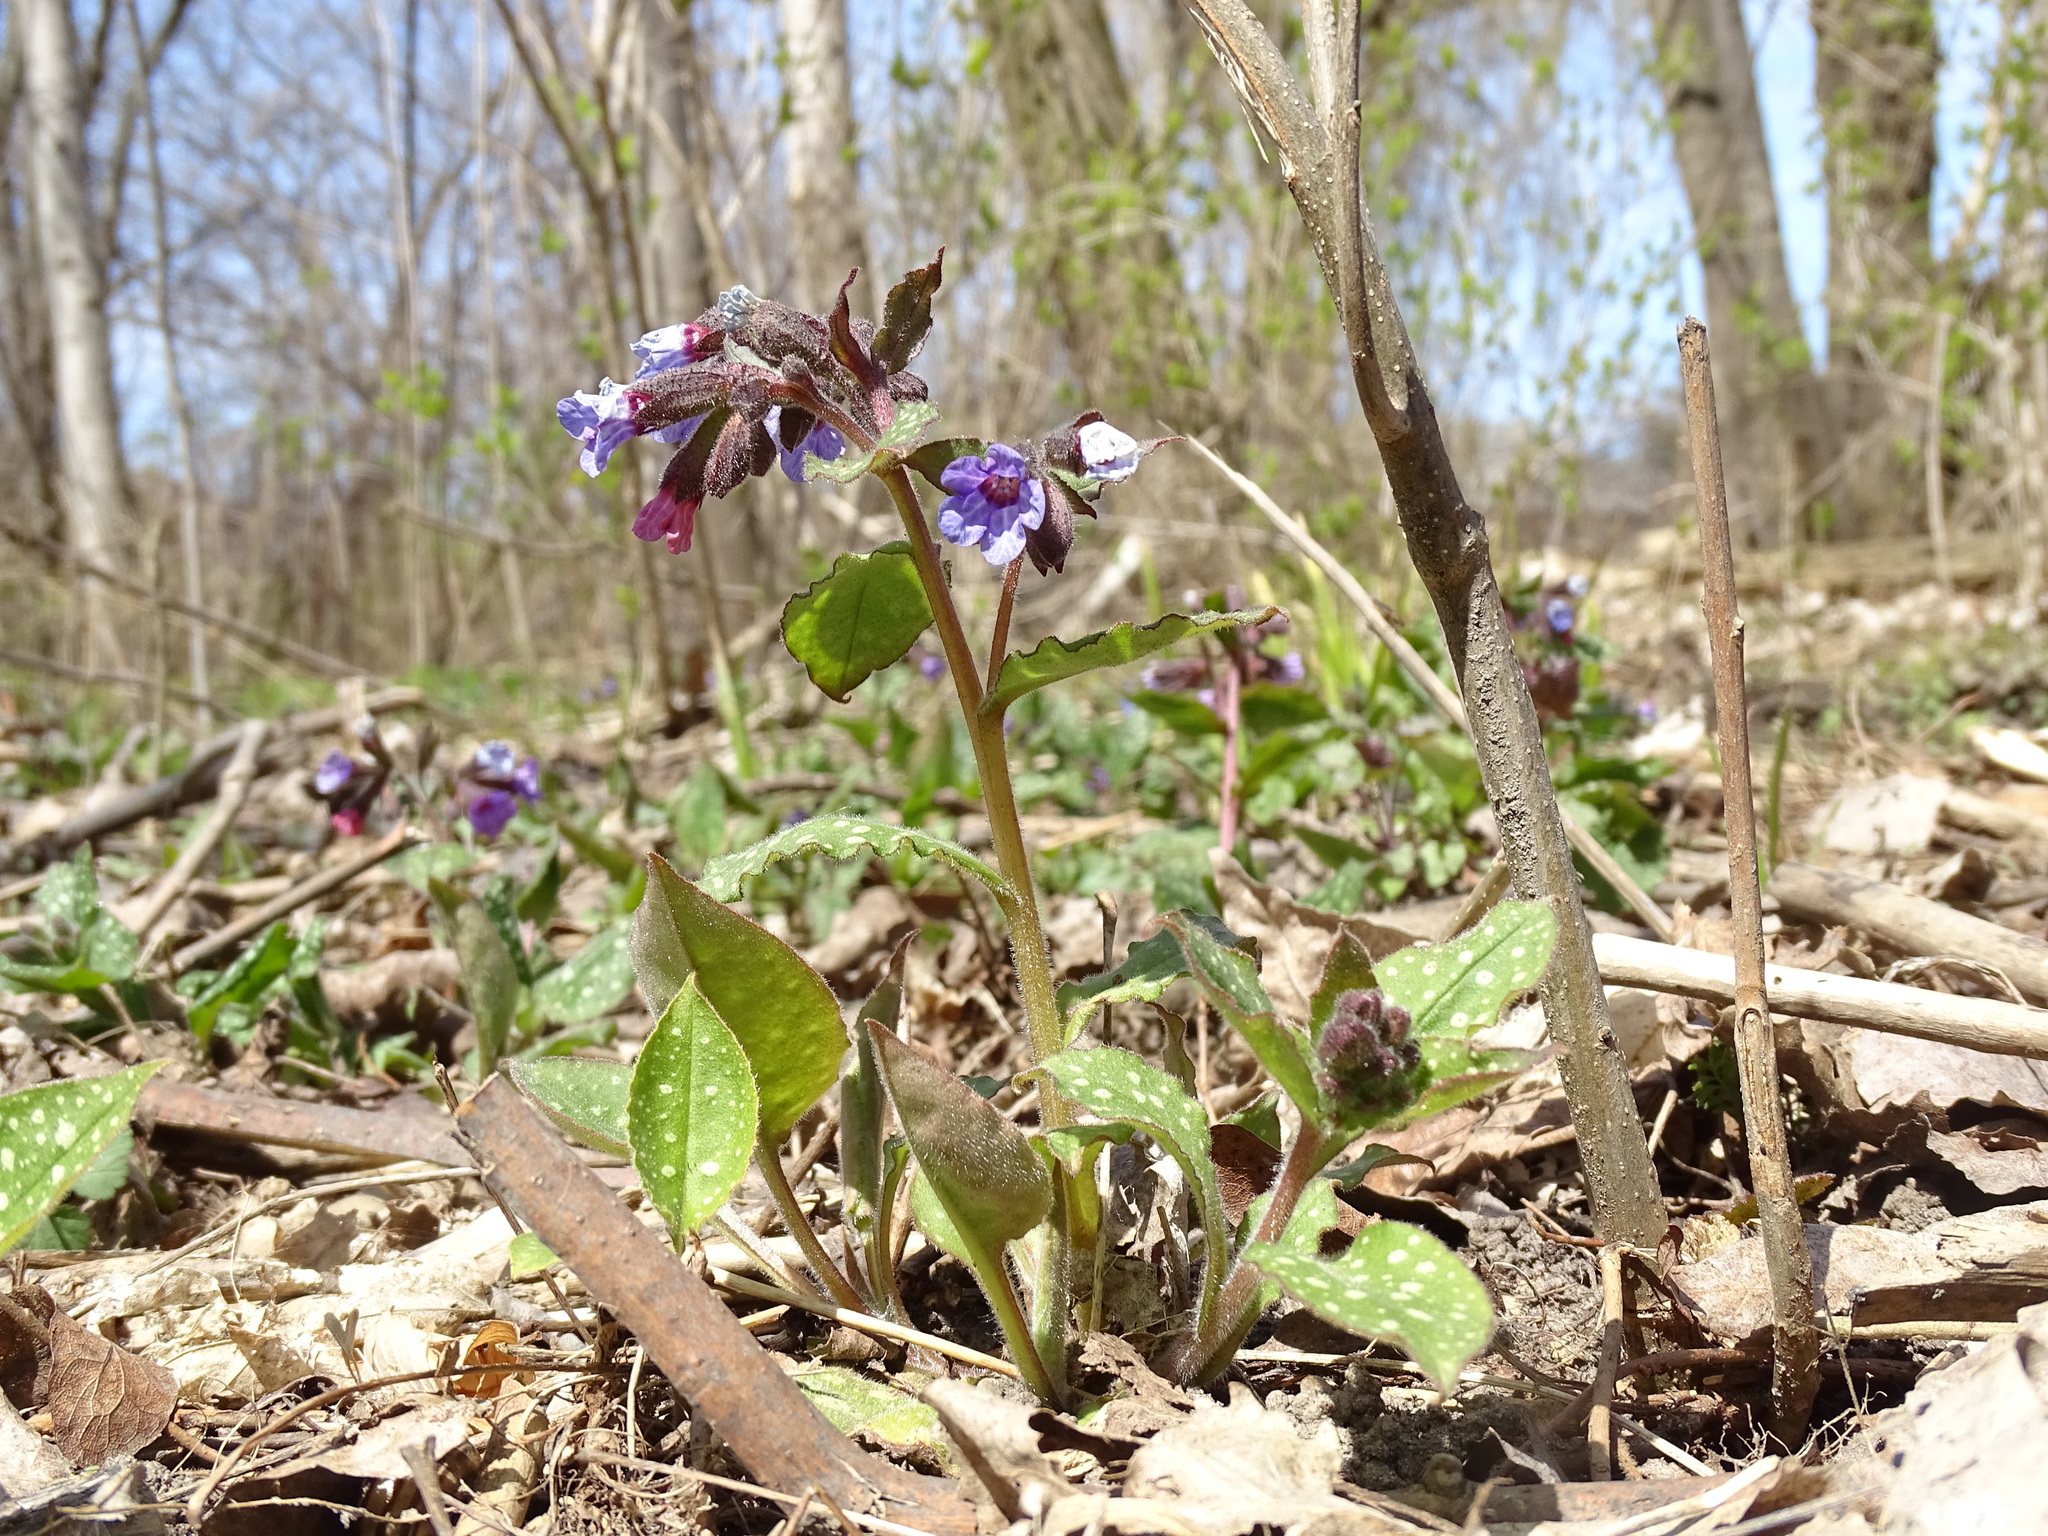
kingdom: Plantae
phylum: Tracheophyta
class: Magnoliopsida
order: Boraginales
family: Boraginaceae
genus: Pulmonaria
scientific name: Pulmonaria officinalis
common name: Lungwort
